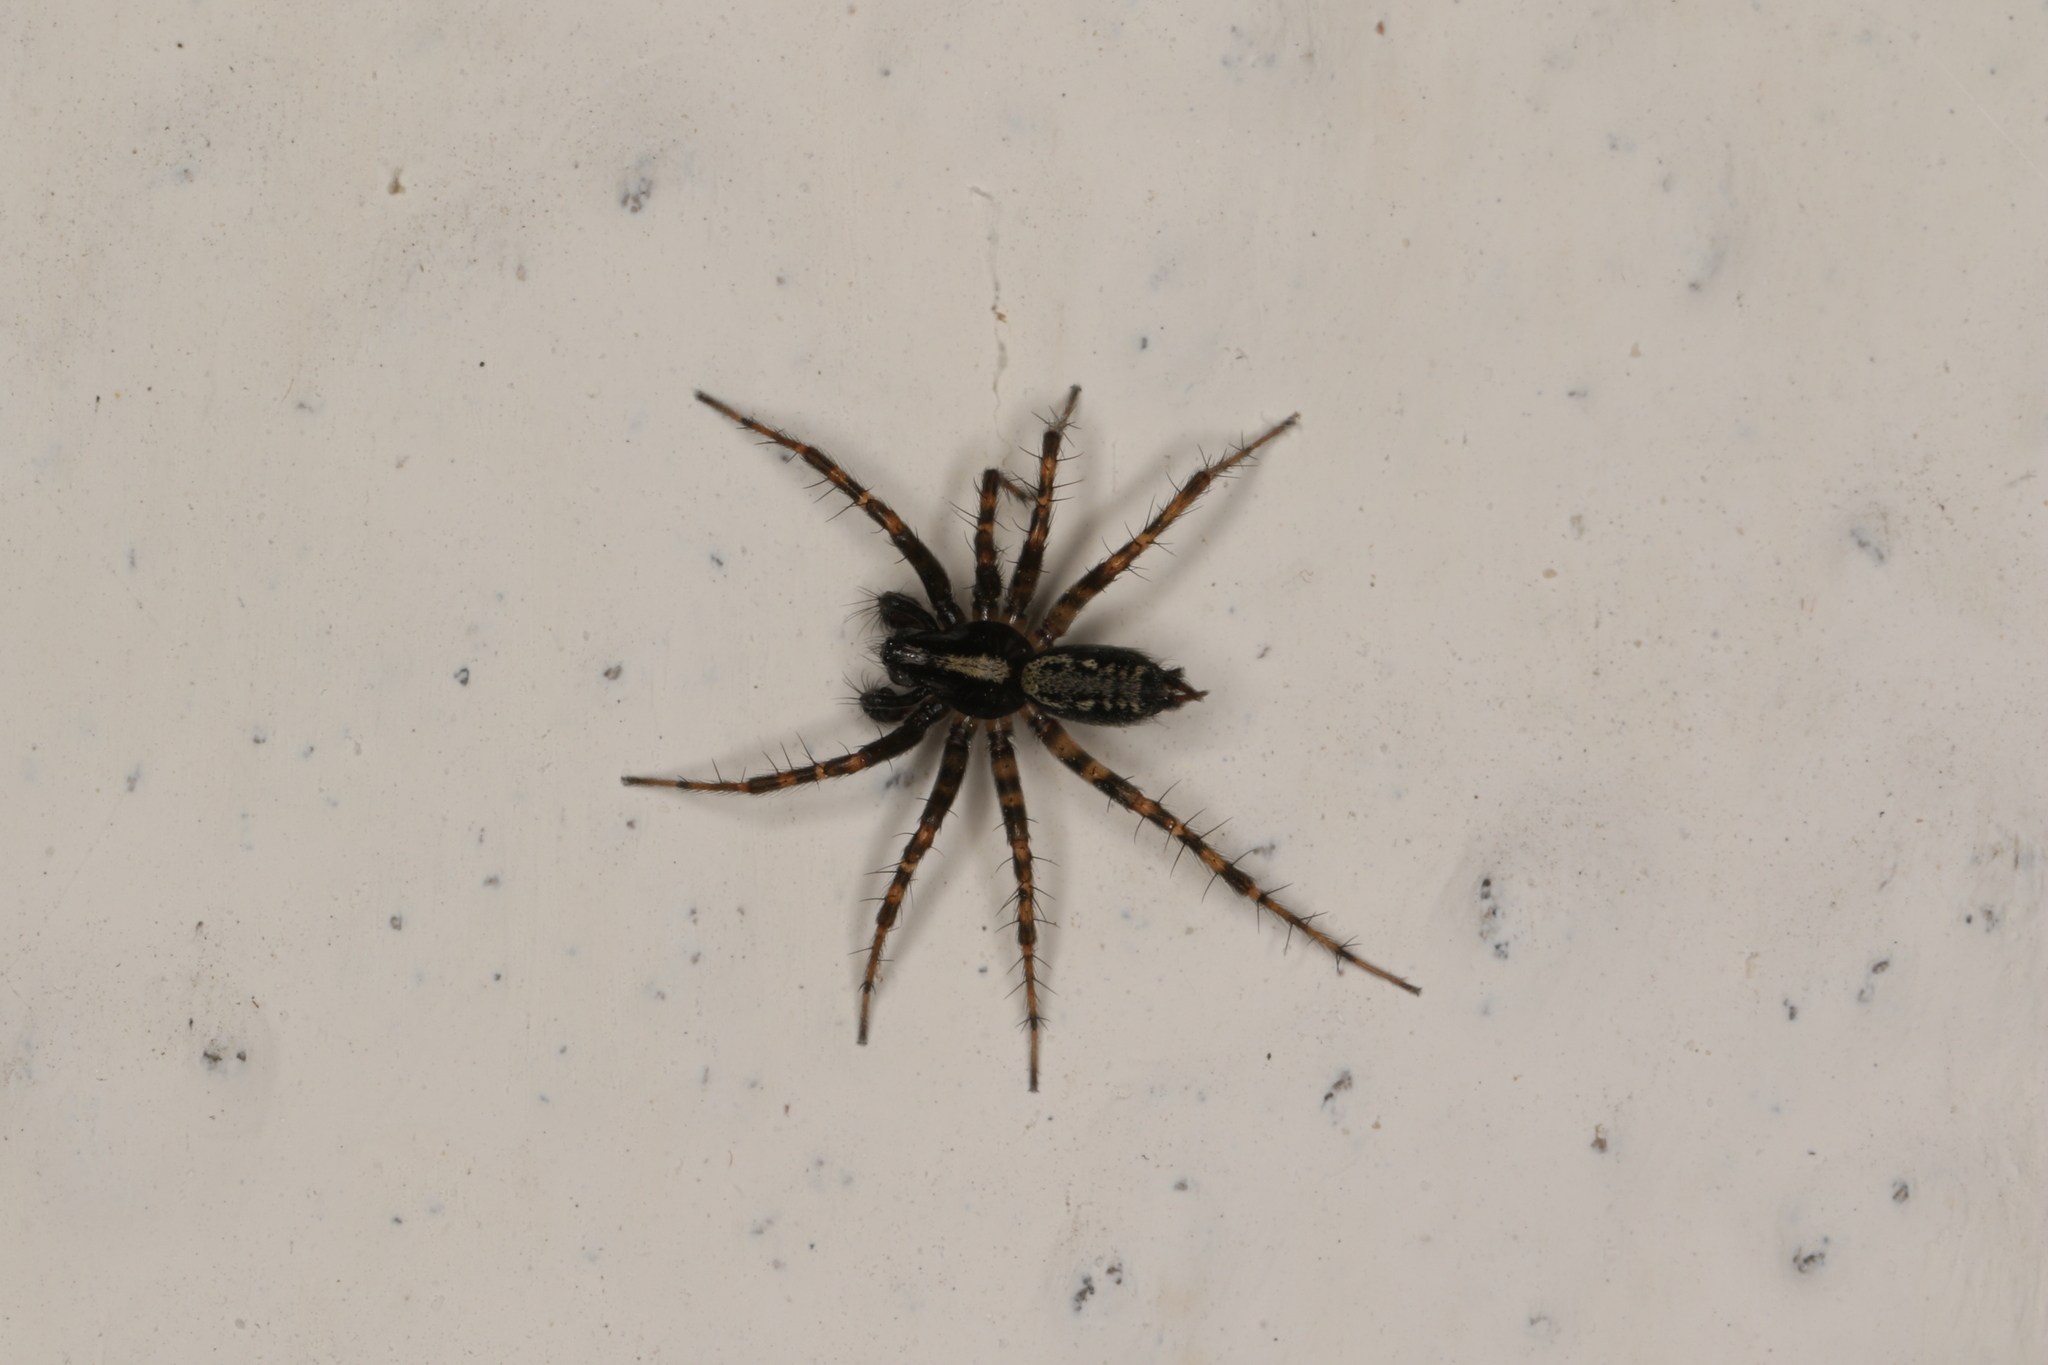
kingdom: Animalia
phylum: Arthropoda
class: Arachnida
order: Araneae
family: Agelenidae
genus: Textrix
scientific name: Textrix denticulata
